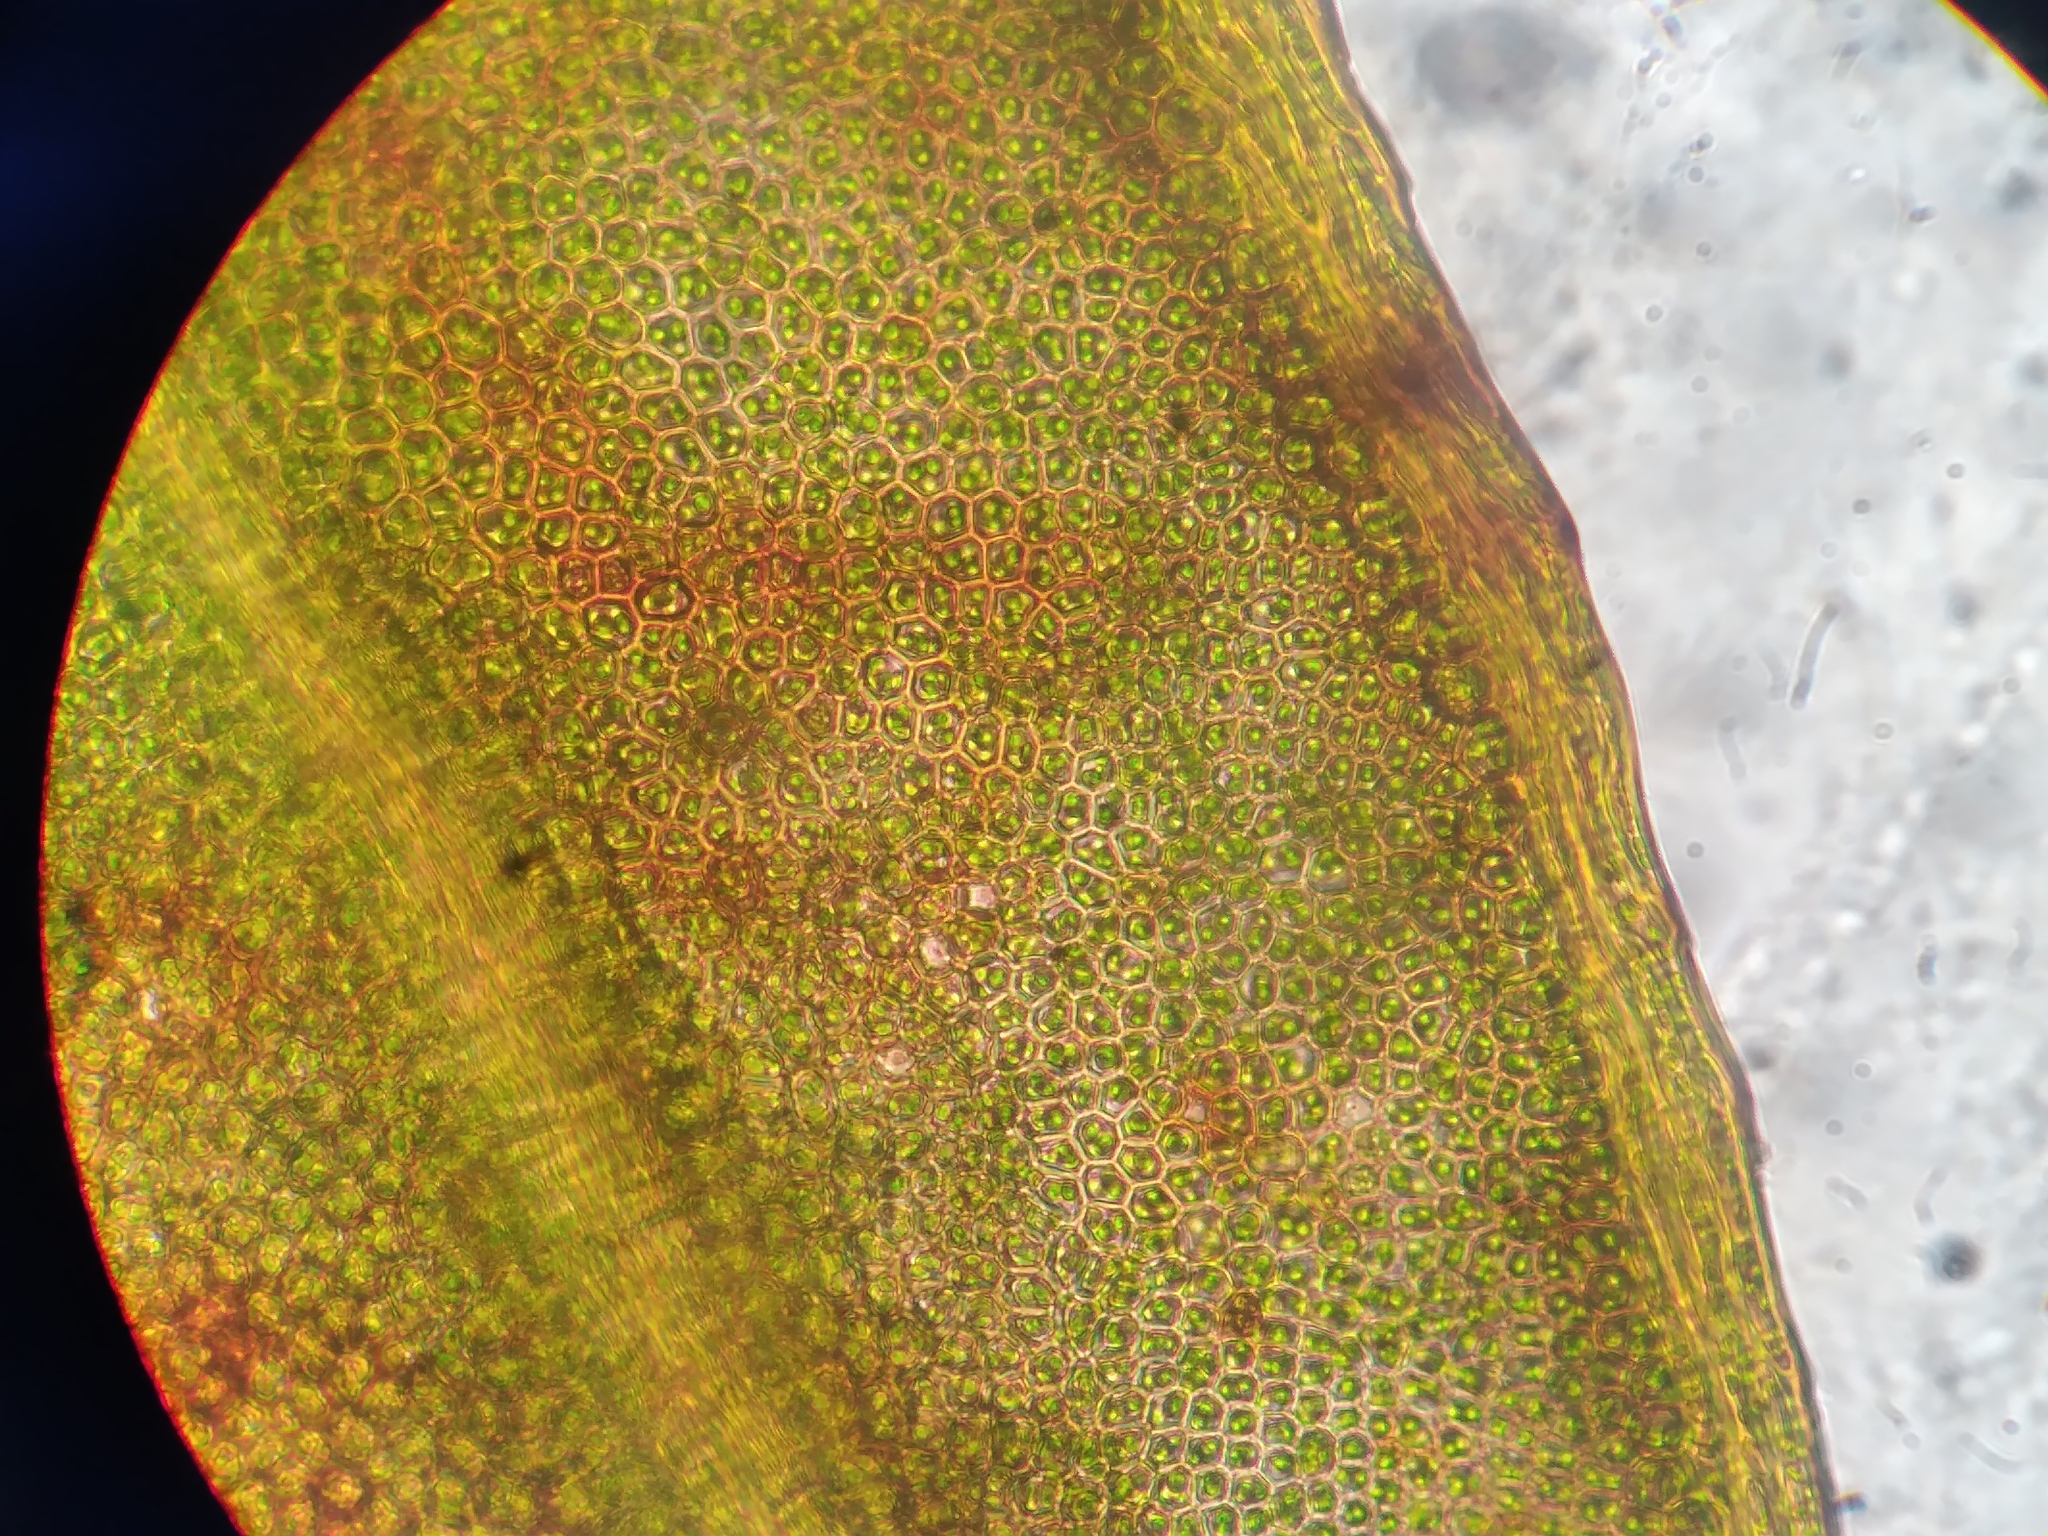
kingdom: Plantae
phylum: Bryophyta
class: Bryopsida
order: Dicranales
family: Fissidentaceae
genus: Fissidens
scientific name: Fissidens rigidulus
